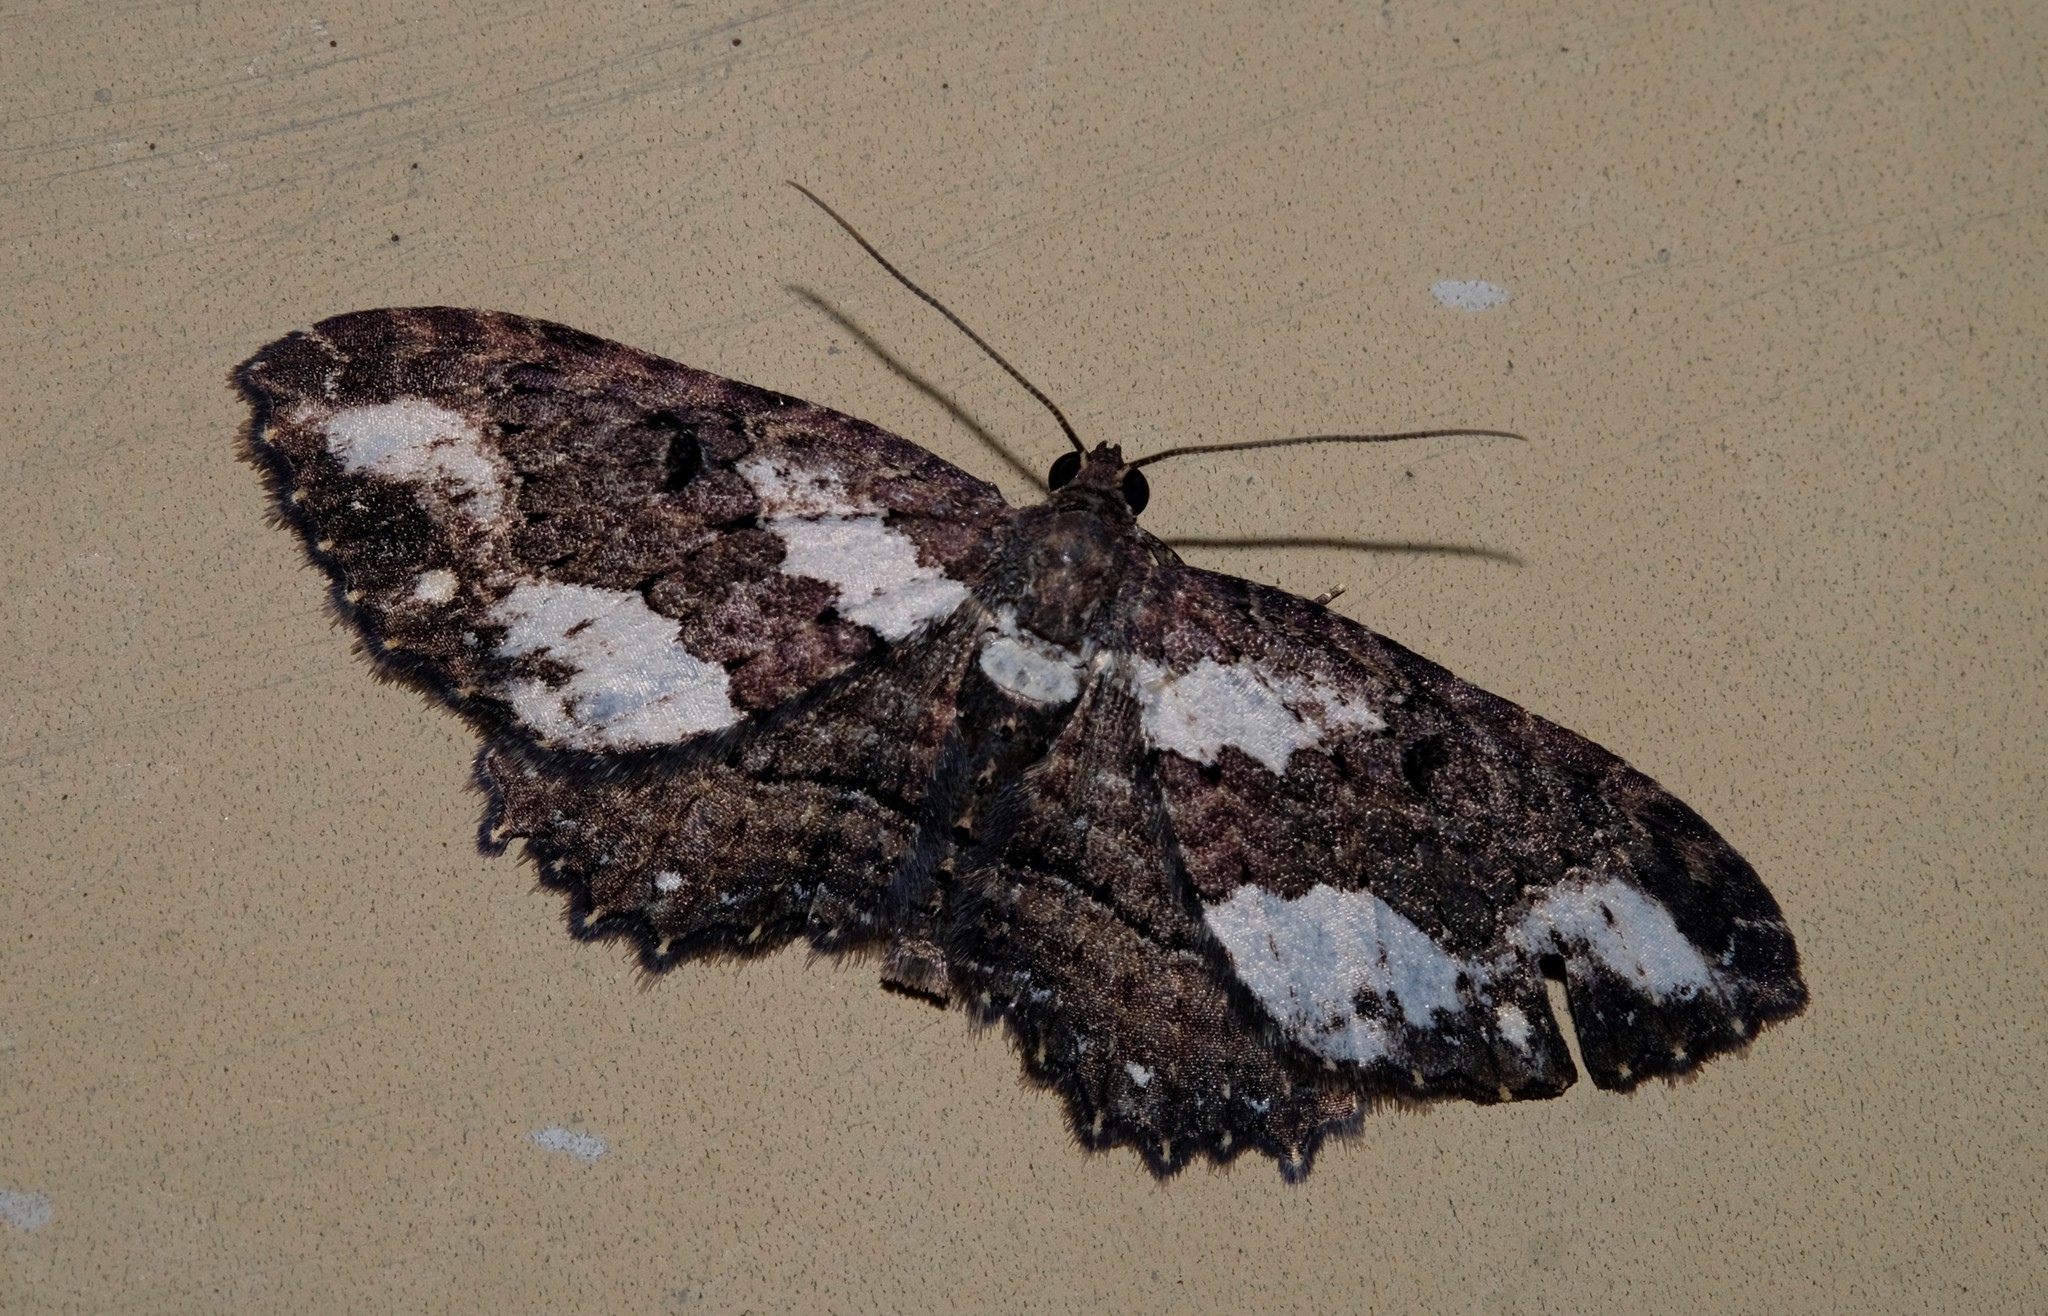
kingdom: Animalia
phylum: Arthropoda
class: Insecta
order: Lepidoptera
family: Geometridae
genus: Eccymatoge
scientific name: Eccymatoge callizona
